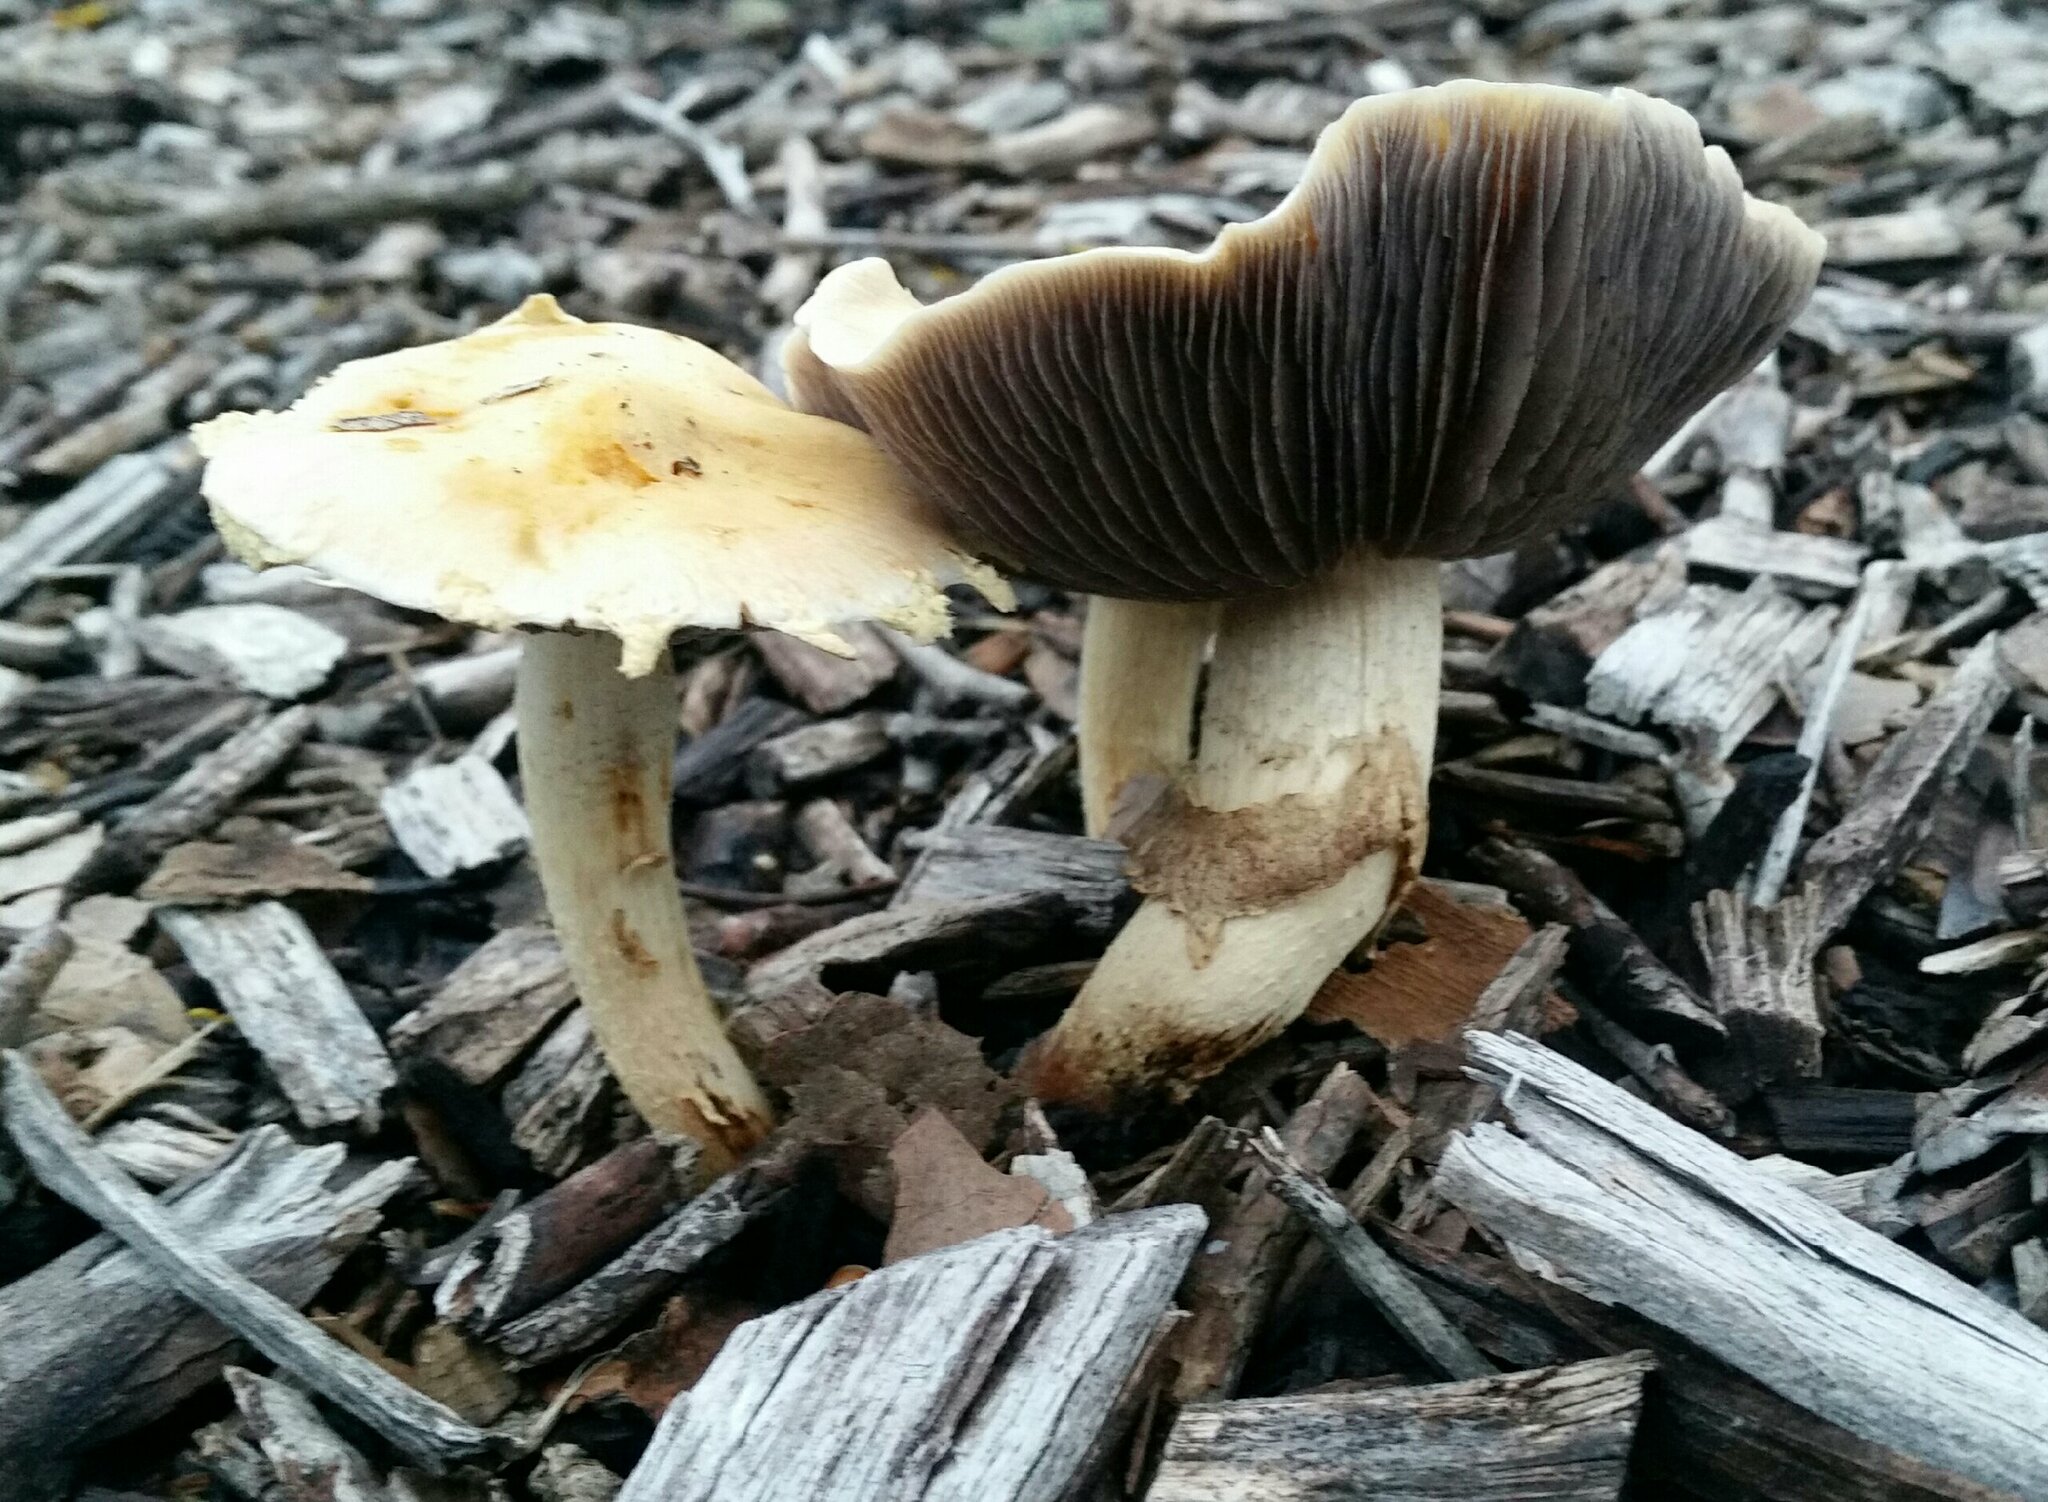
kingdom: Fungi
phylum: Basidiomycota
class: Agaricomycetes
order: Agaricales
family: Strophariaceae
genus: Leratiomyces
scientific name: Leratiomyces percevalii
